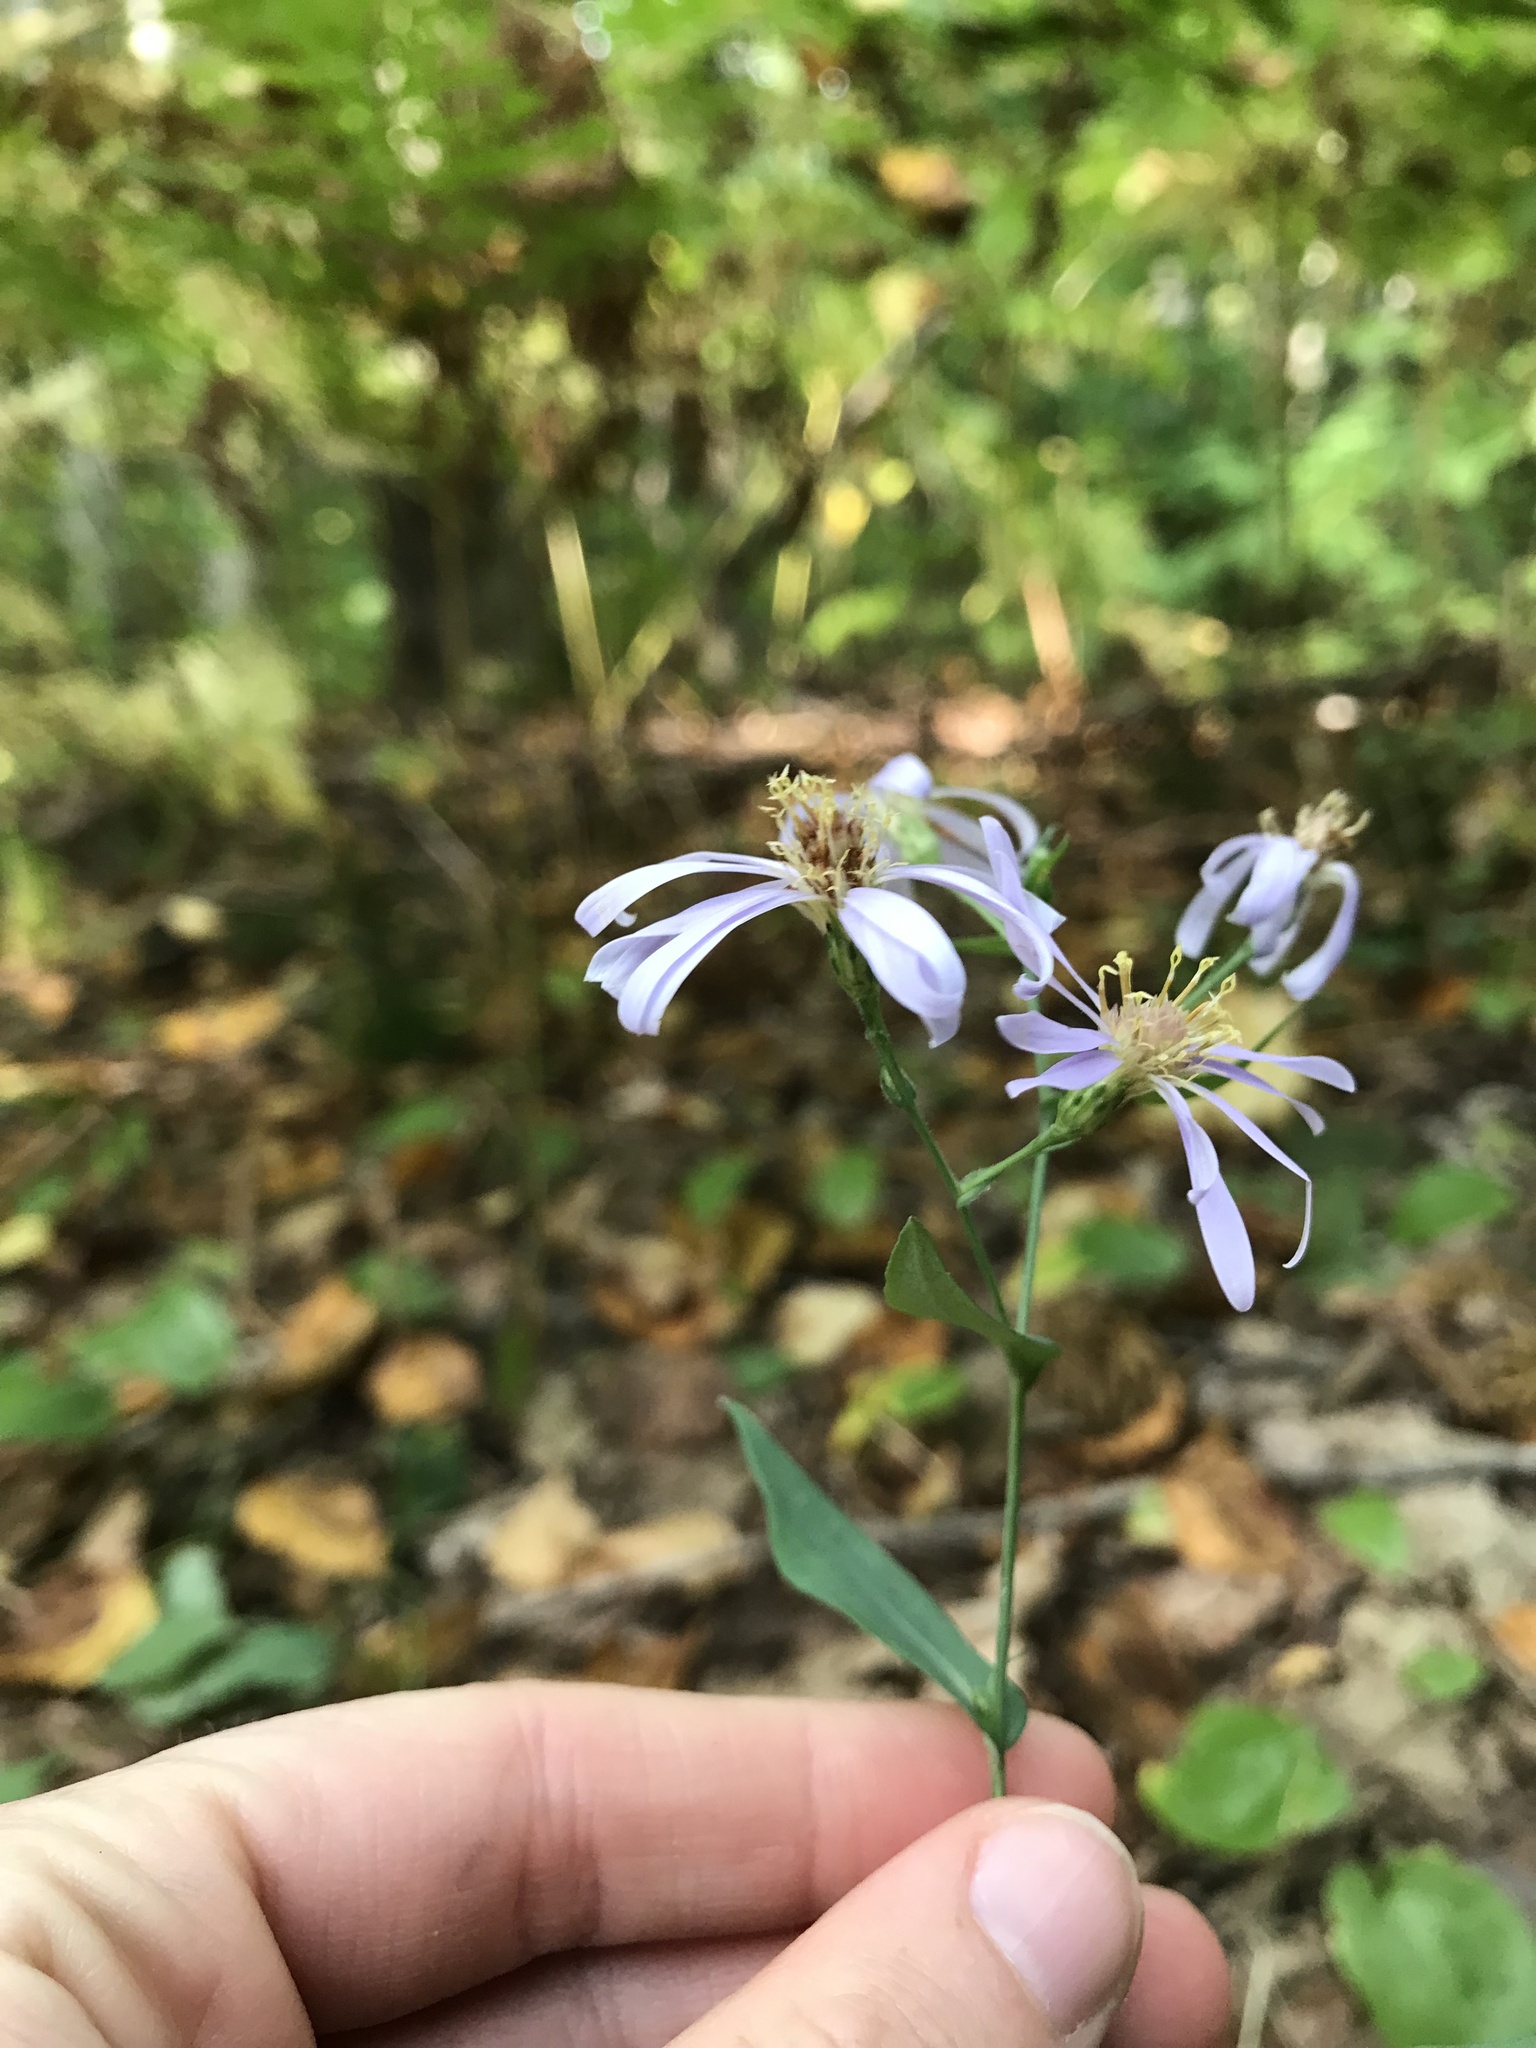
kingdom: Plantae
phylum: Tracheophyta
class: Magnoliopsida
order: Asterales
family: Asteraceae
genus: Symphyotrichum
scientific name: Symphyotrichum laeve
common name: Glaucous aster
